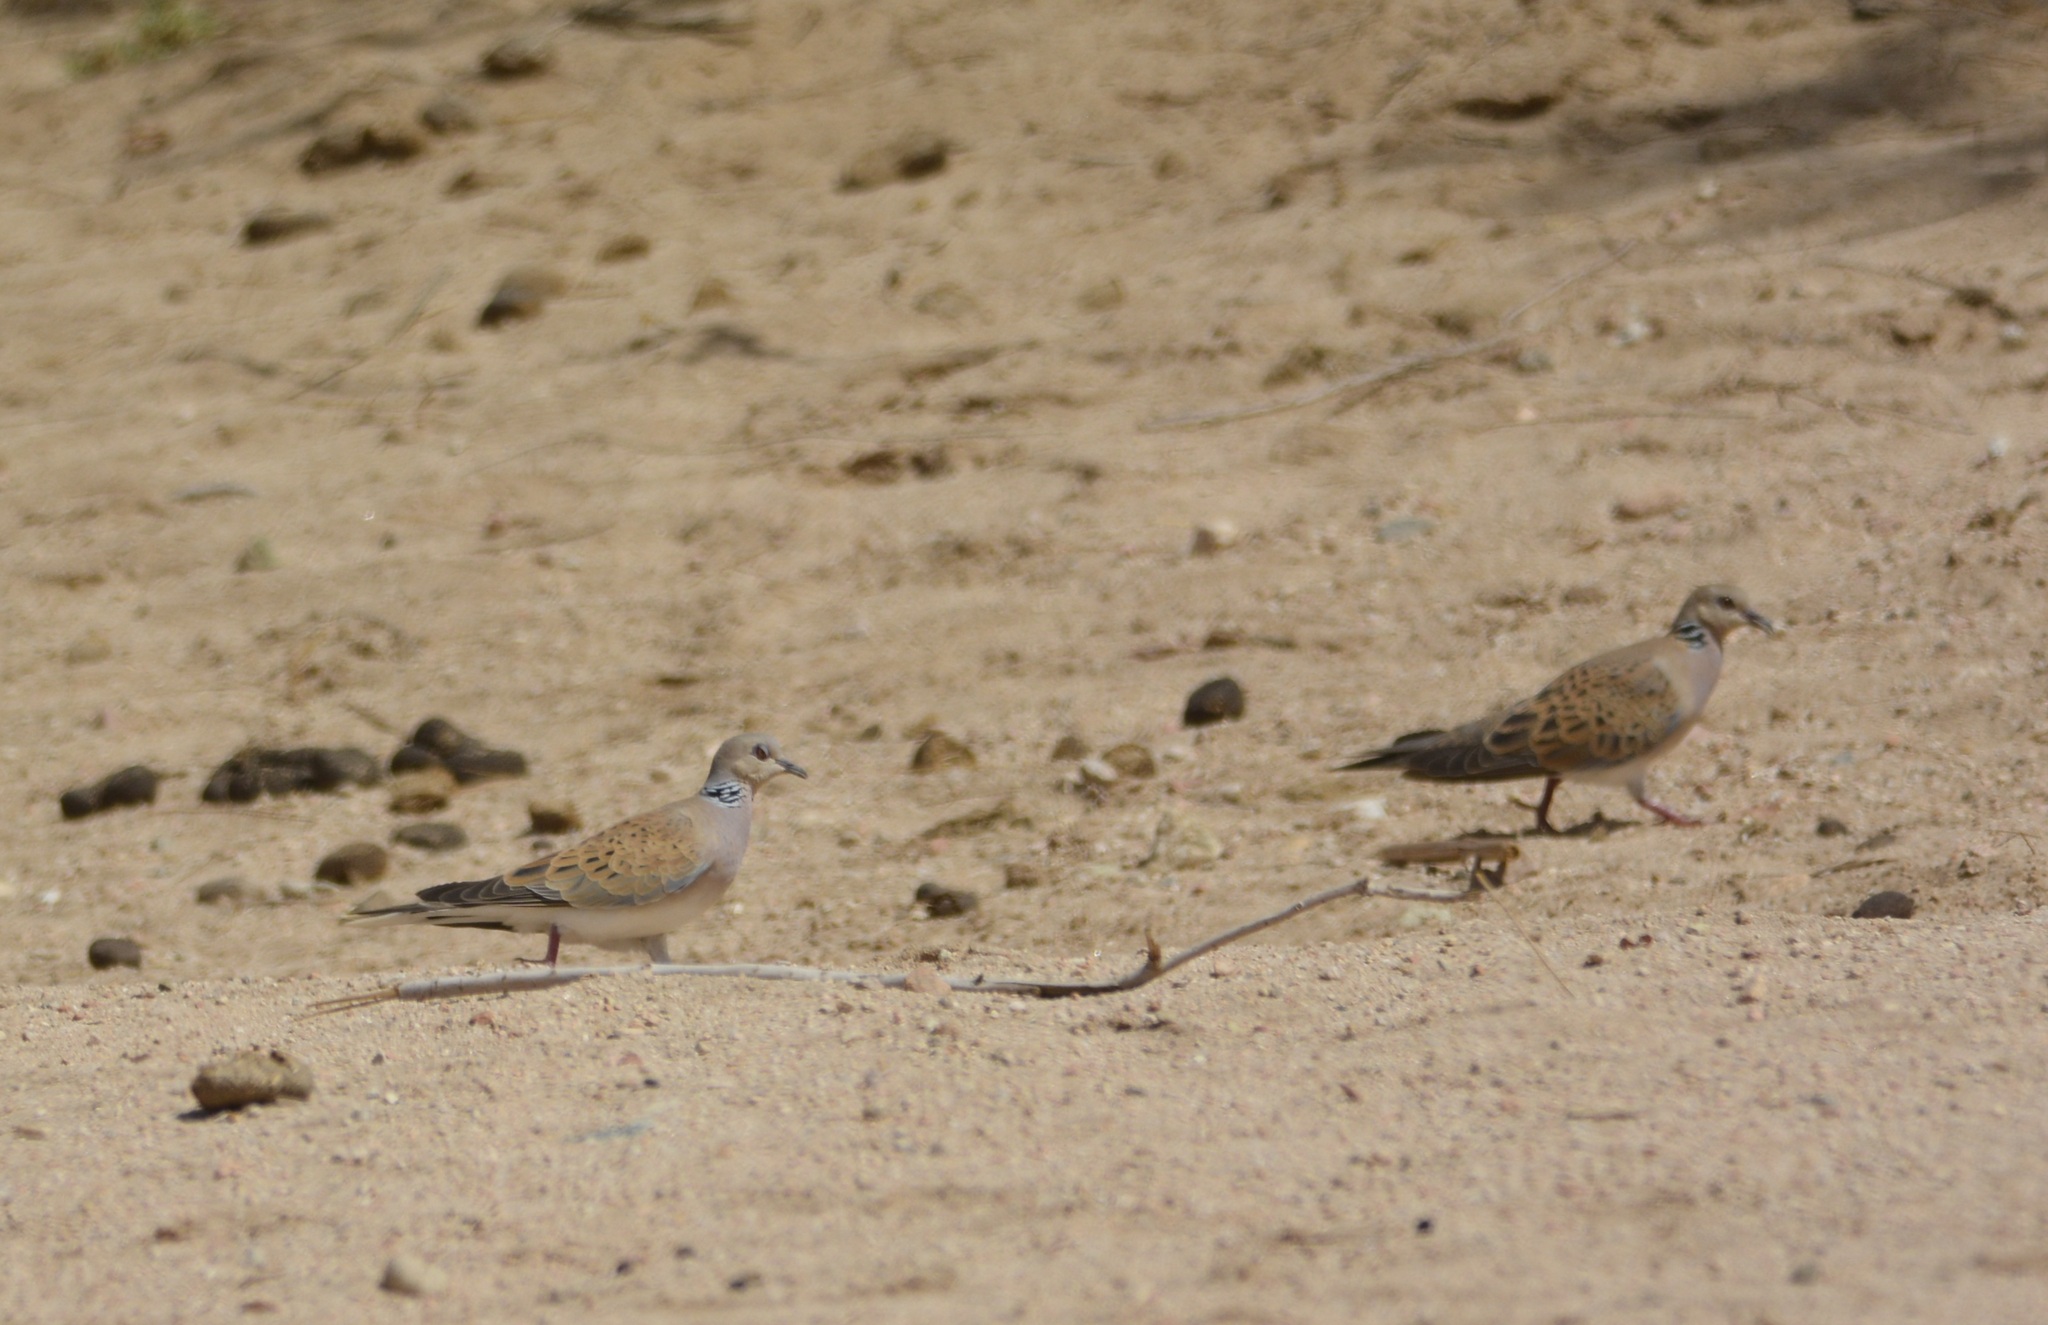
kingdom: Animalia
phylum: Chordata
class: Aves
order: Columbiformes
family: Columbidae
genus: Streptopelia
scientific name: Streptopelia turtur
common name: European turtle dove
